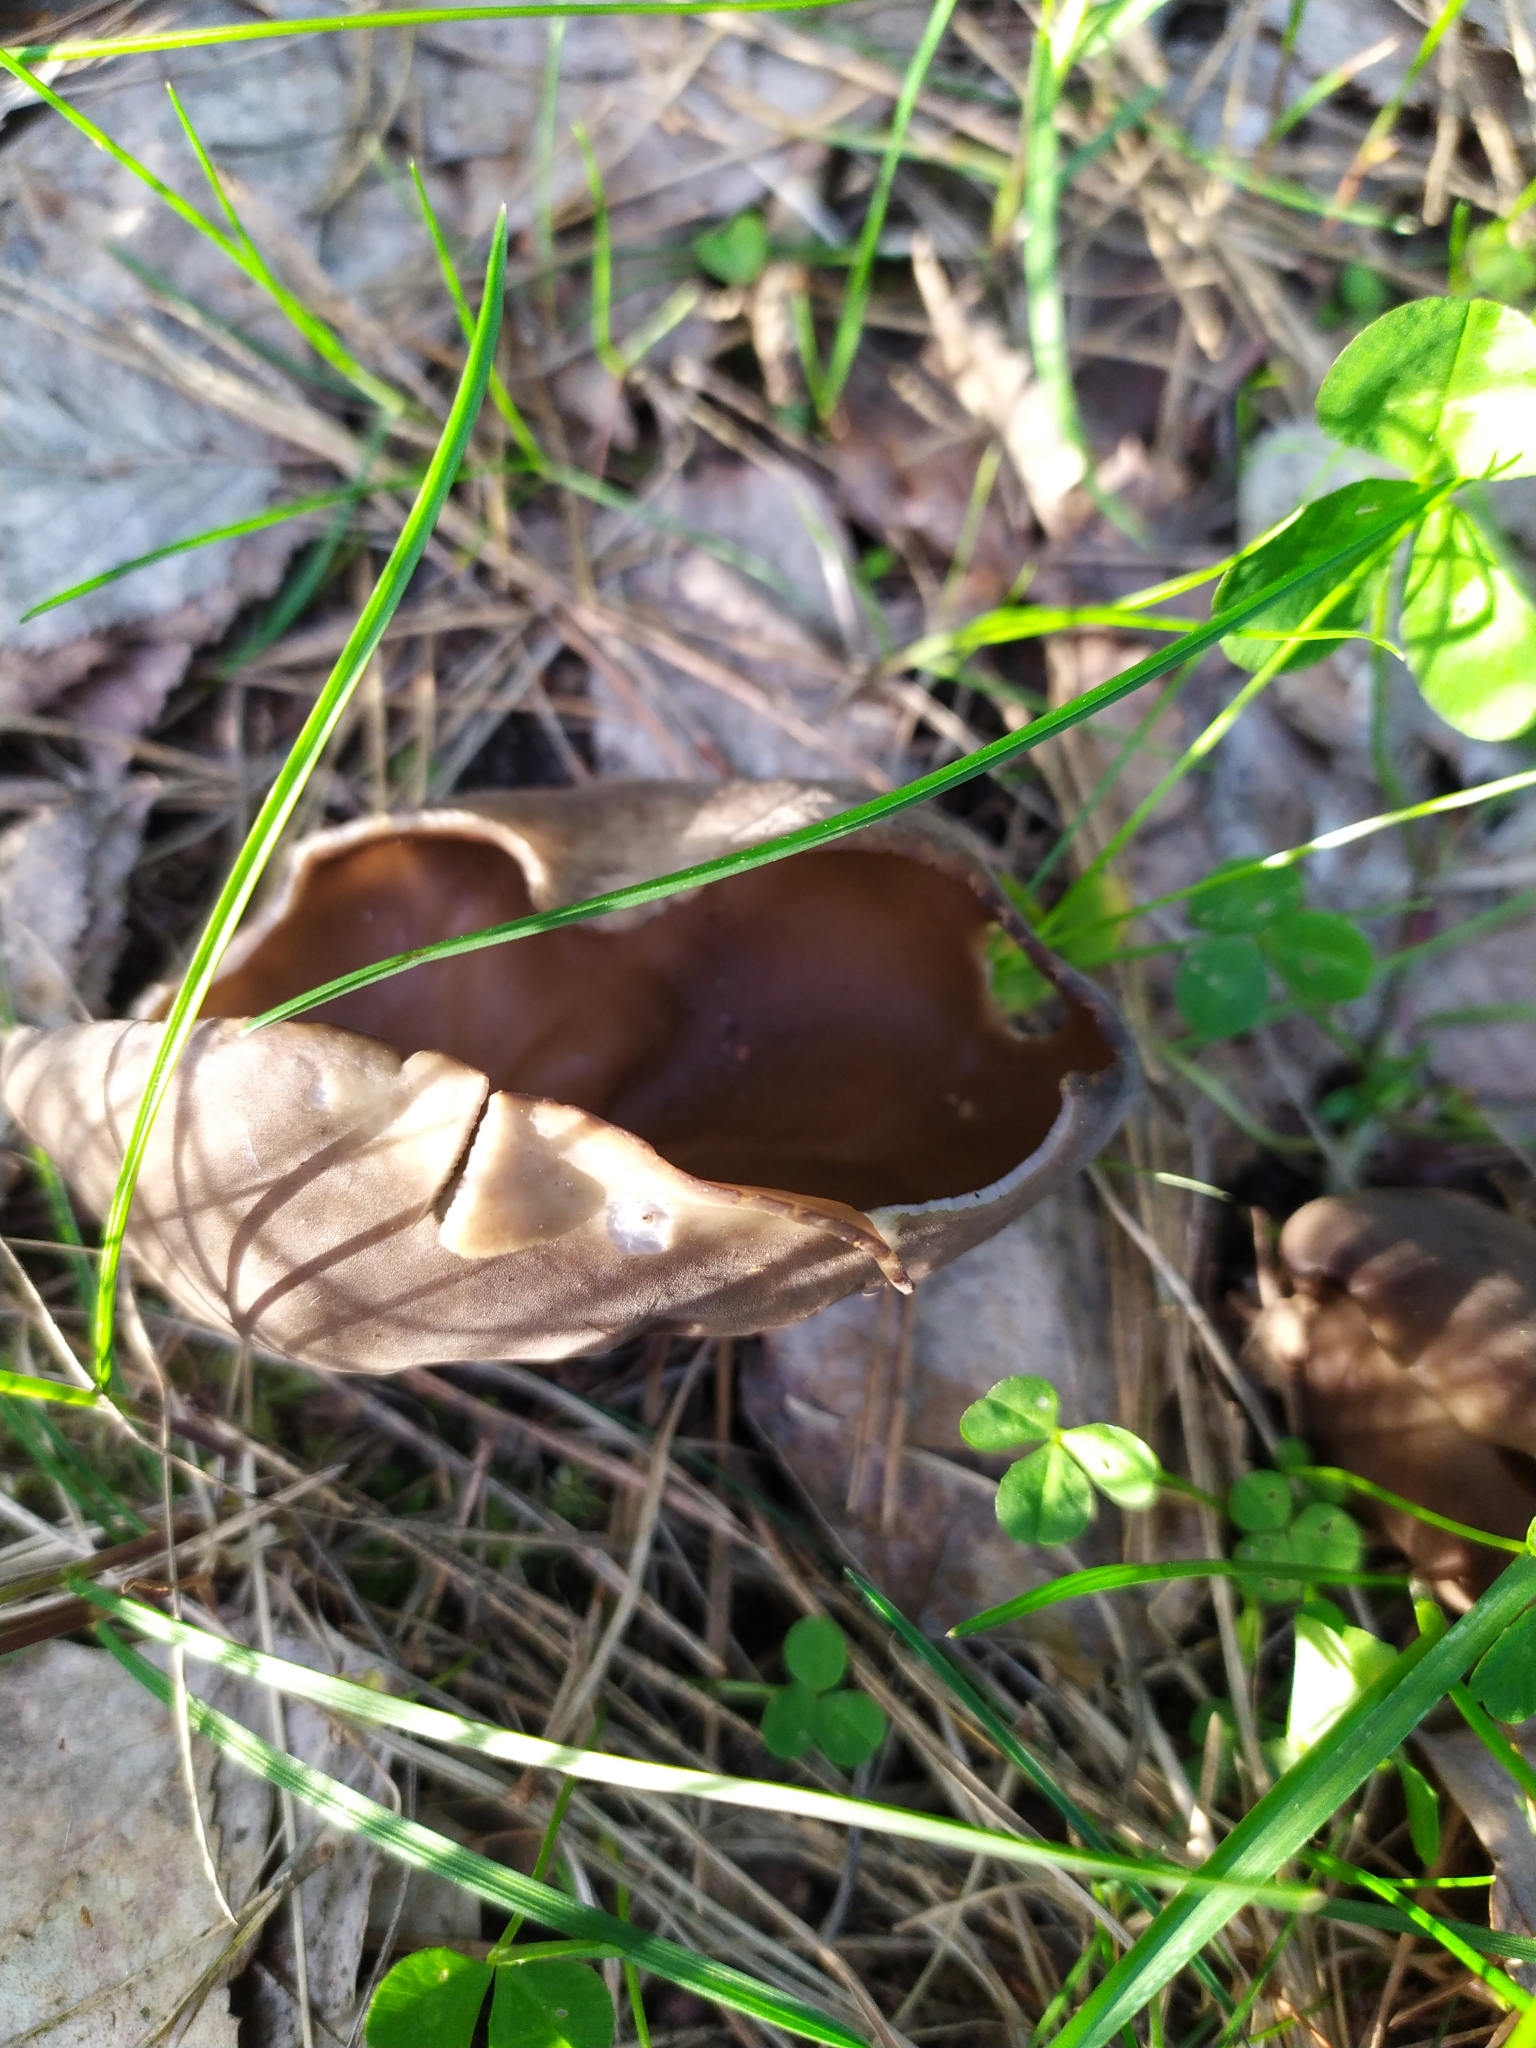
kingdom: Fungi
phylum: Ascomycota
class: Pezizomycetes
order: Pezizales
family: Helvellaceae
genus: Helvella
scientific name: Helvella acetabulum
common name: Vinegar cup
